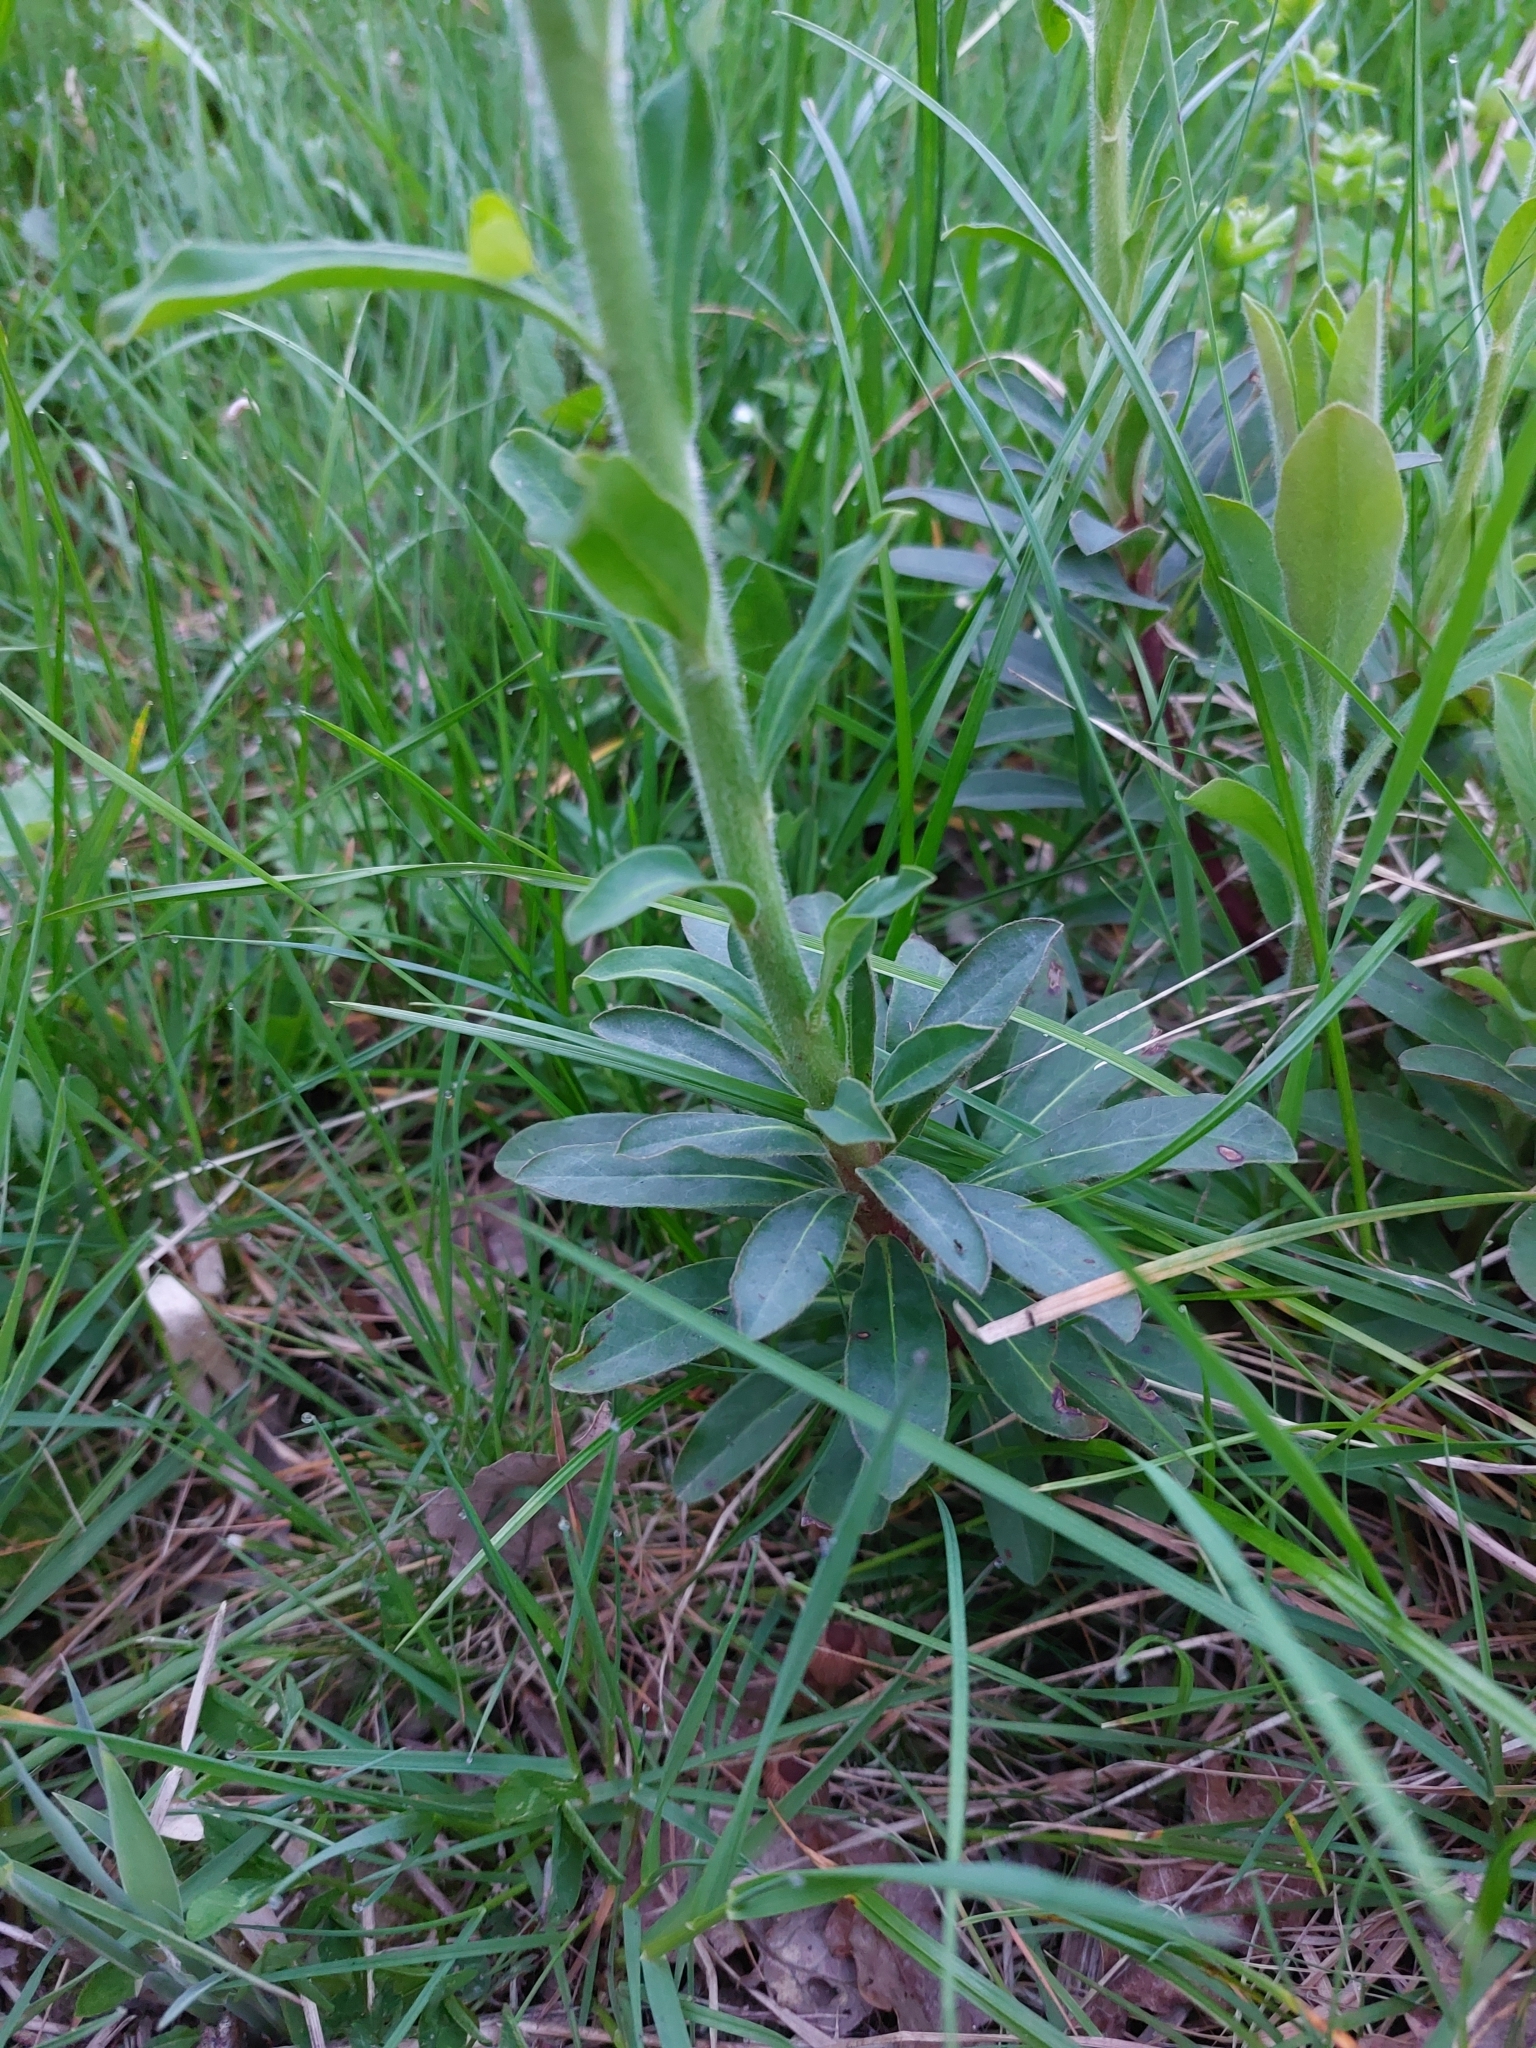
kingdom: Plantae
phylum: Tracheophyta
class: Magnoliopsida
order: Malpighiales
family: Euphorbiaceae
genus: Euphorbia
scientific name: Euphorbia amygdaloides
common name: Wood spurge
